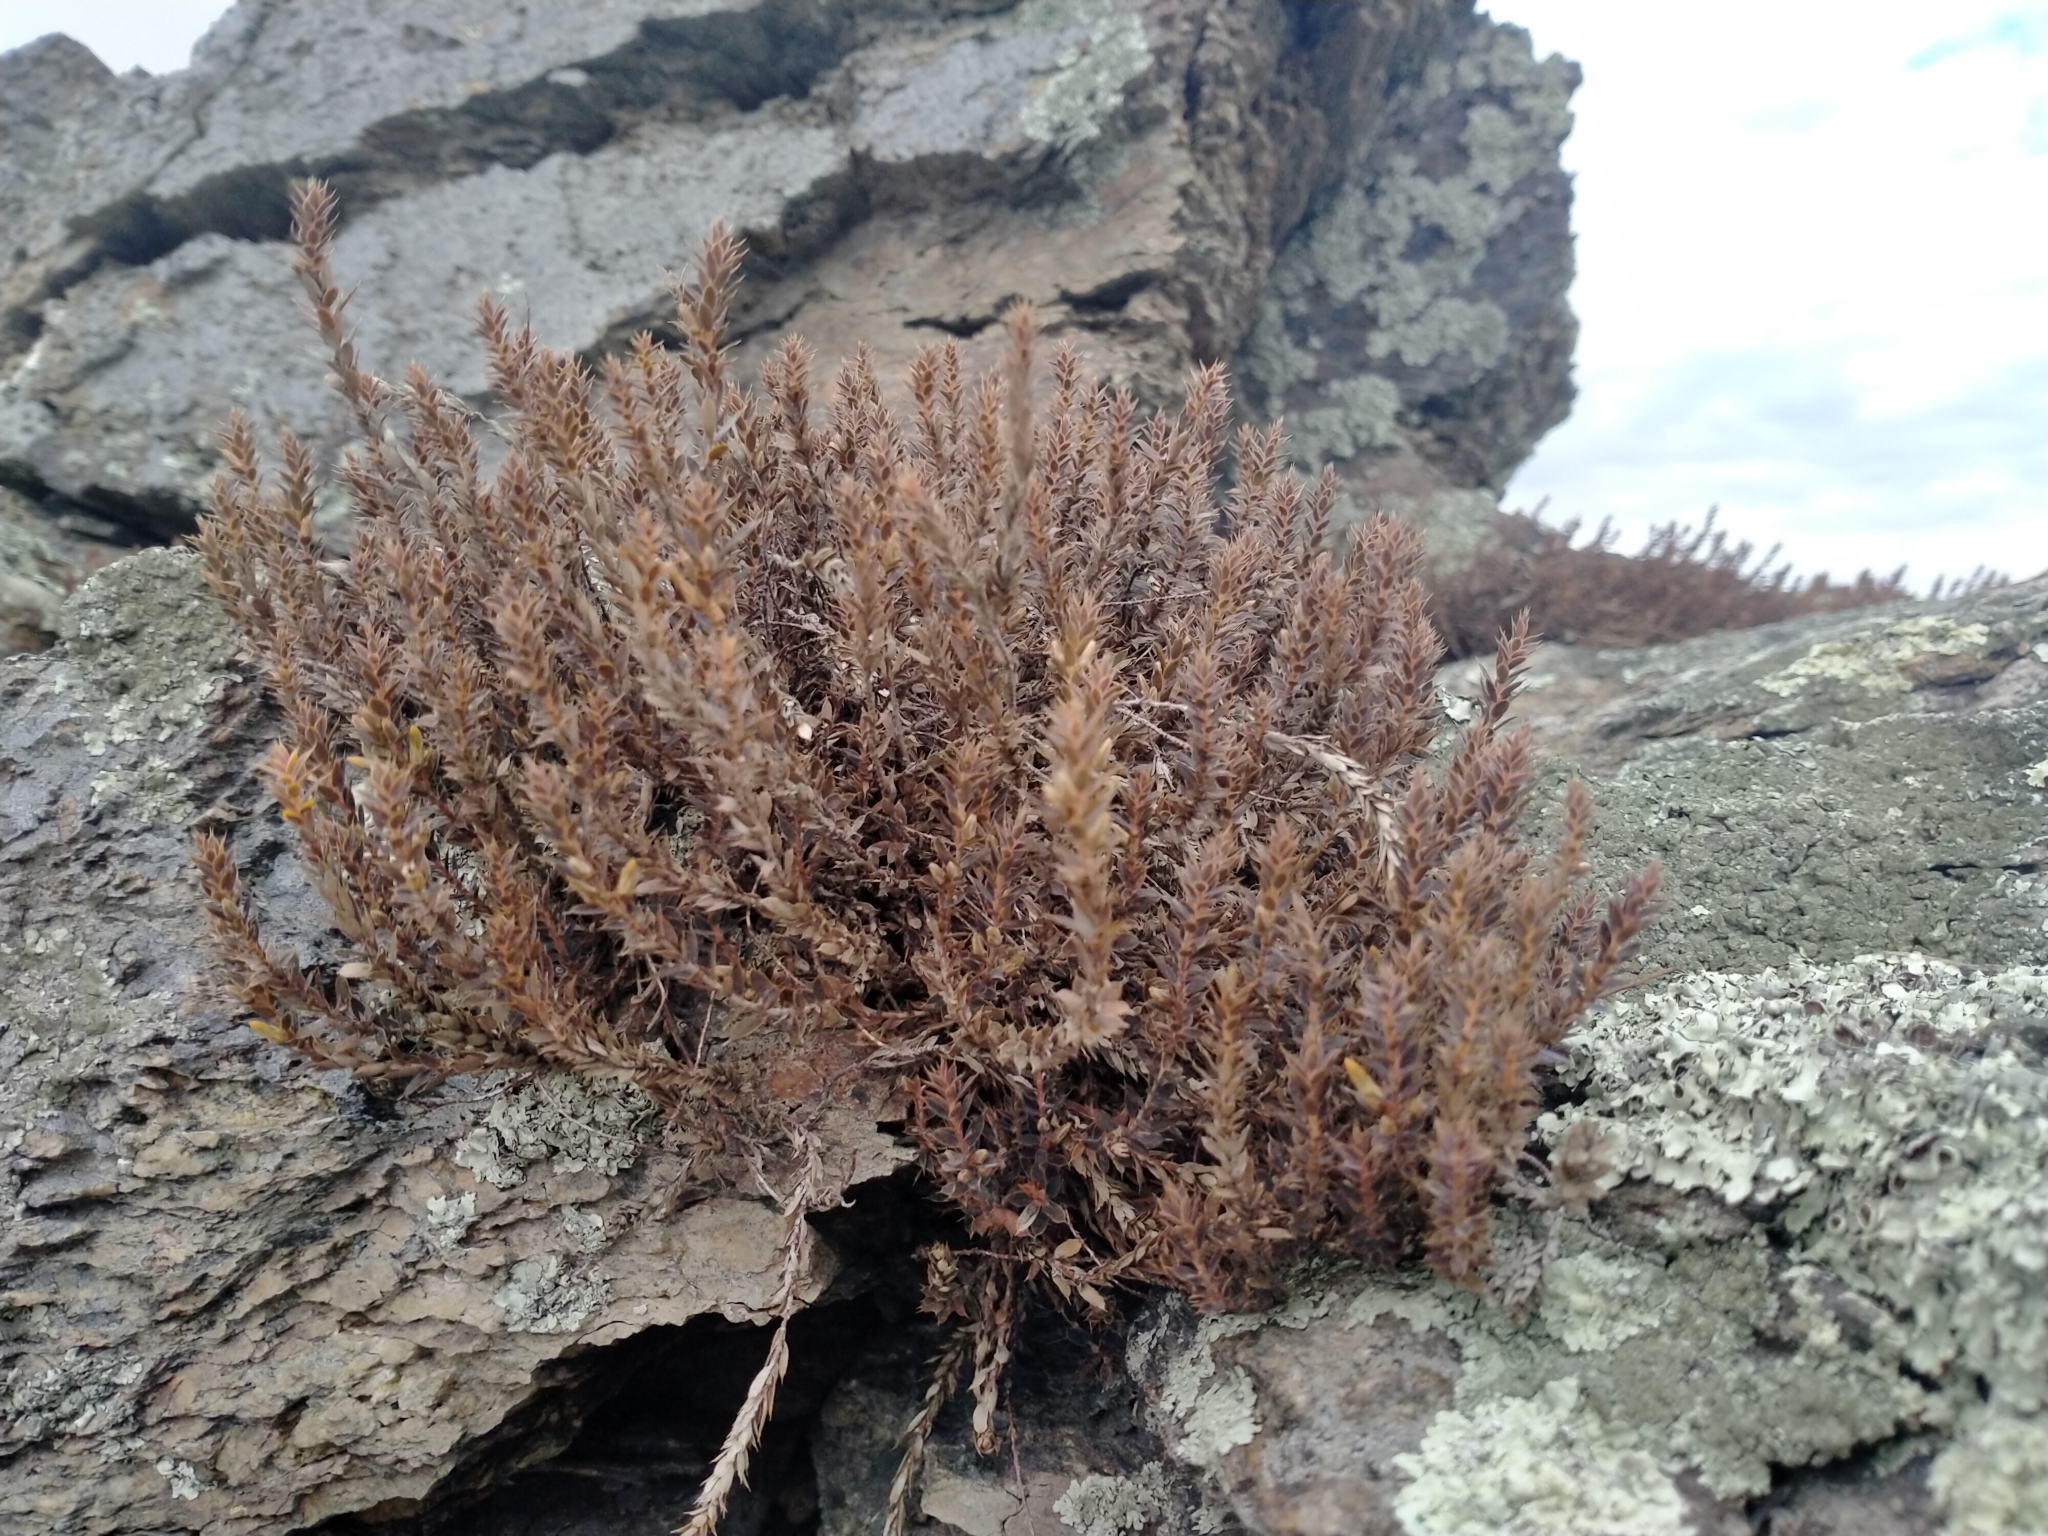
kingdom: Plantae
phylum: Tracheophyta
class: Magnoliopsida
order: Ericales
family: Ericaceae
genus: Styphelia
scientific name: Styphelia nesophila
